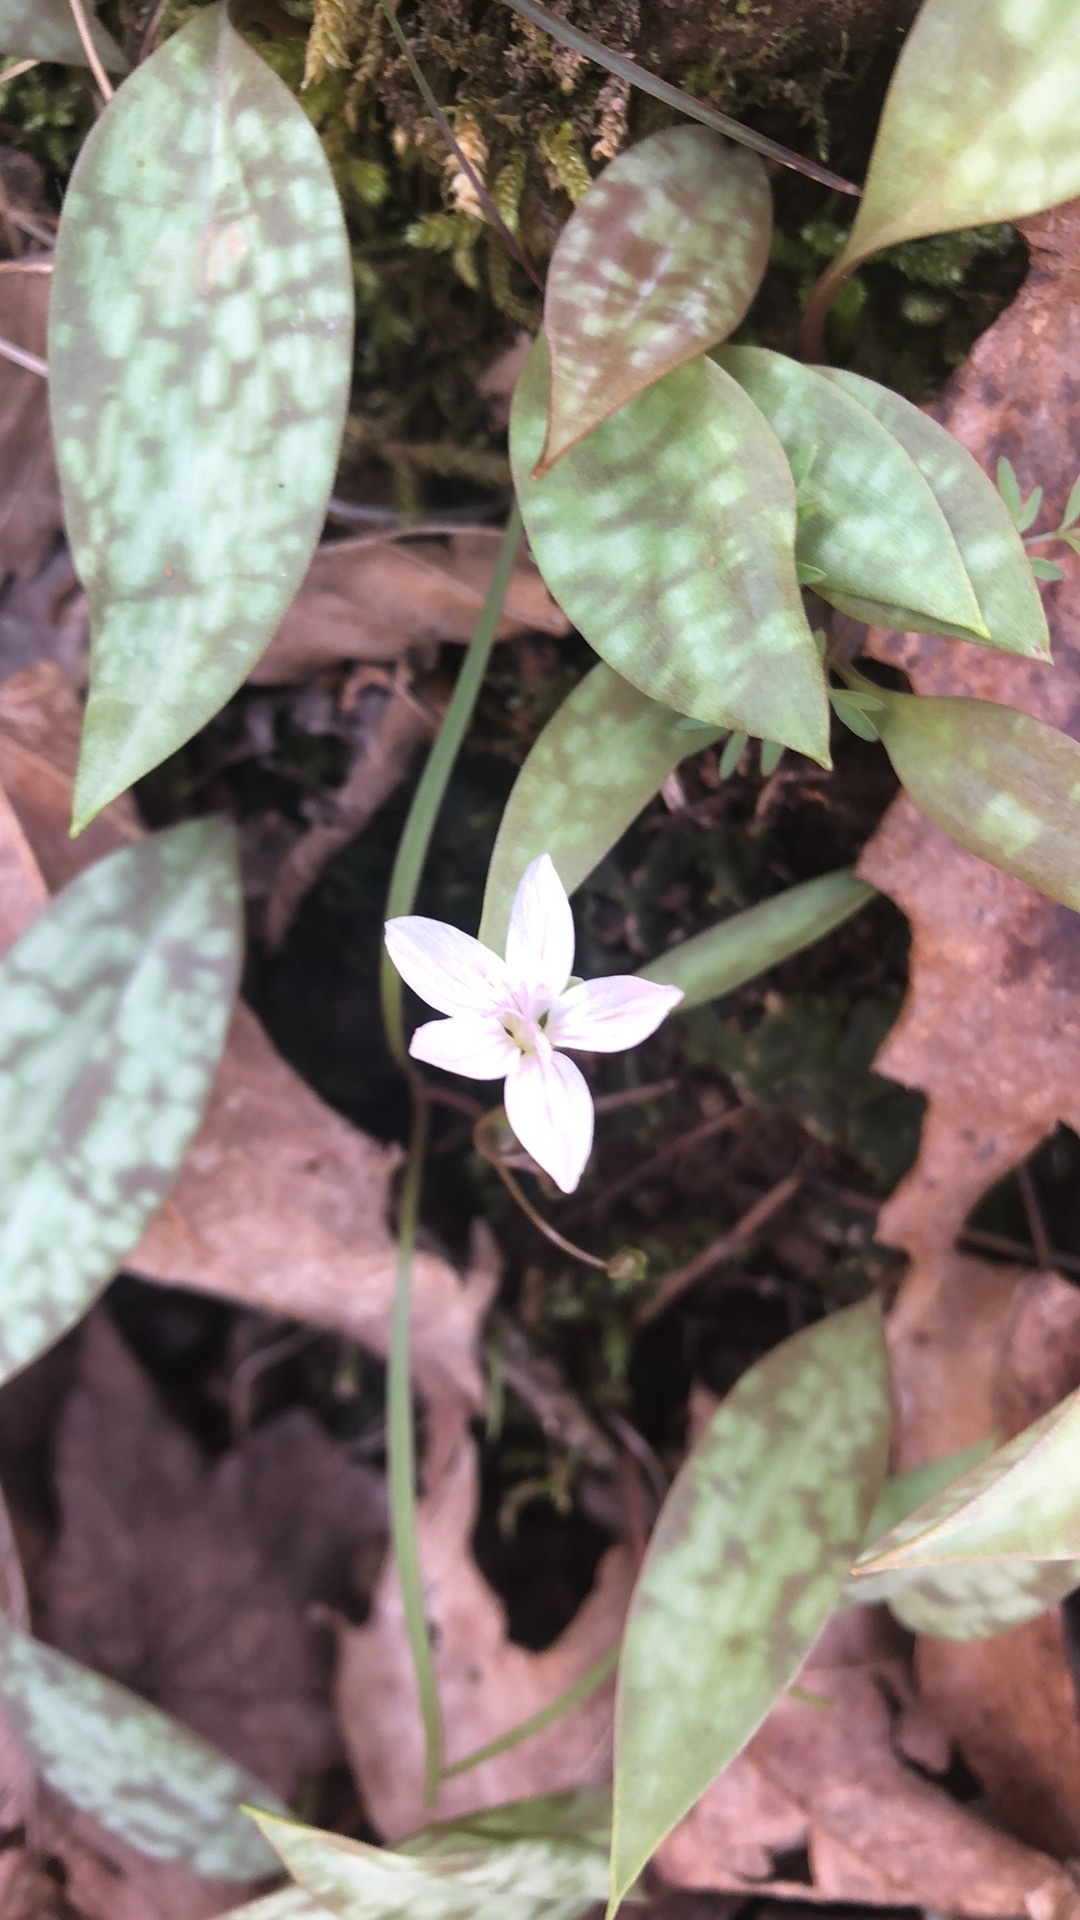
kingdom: Plantae
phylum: Tracheophyta
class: Magnoliopsida
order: Caryophyllales
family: Montiaceae
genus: Claytonia
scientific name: Claytonia virginica
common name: Virginia springbeauty
